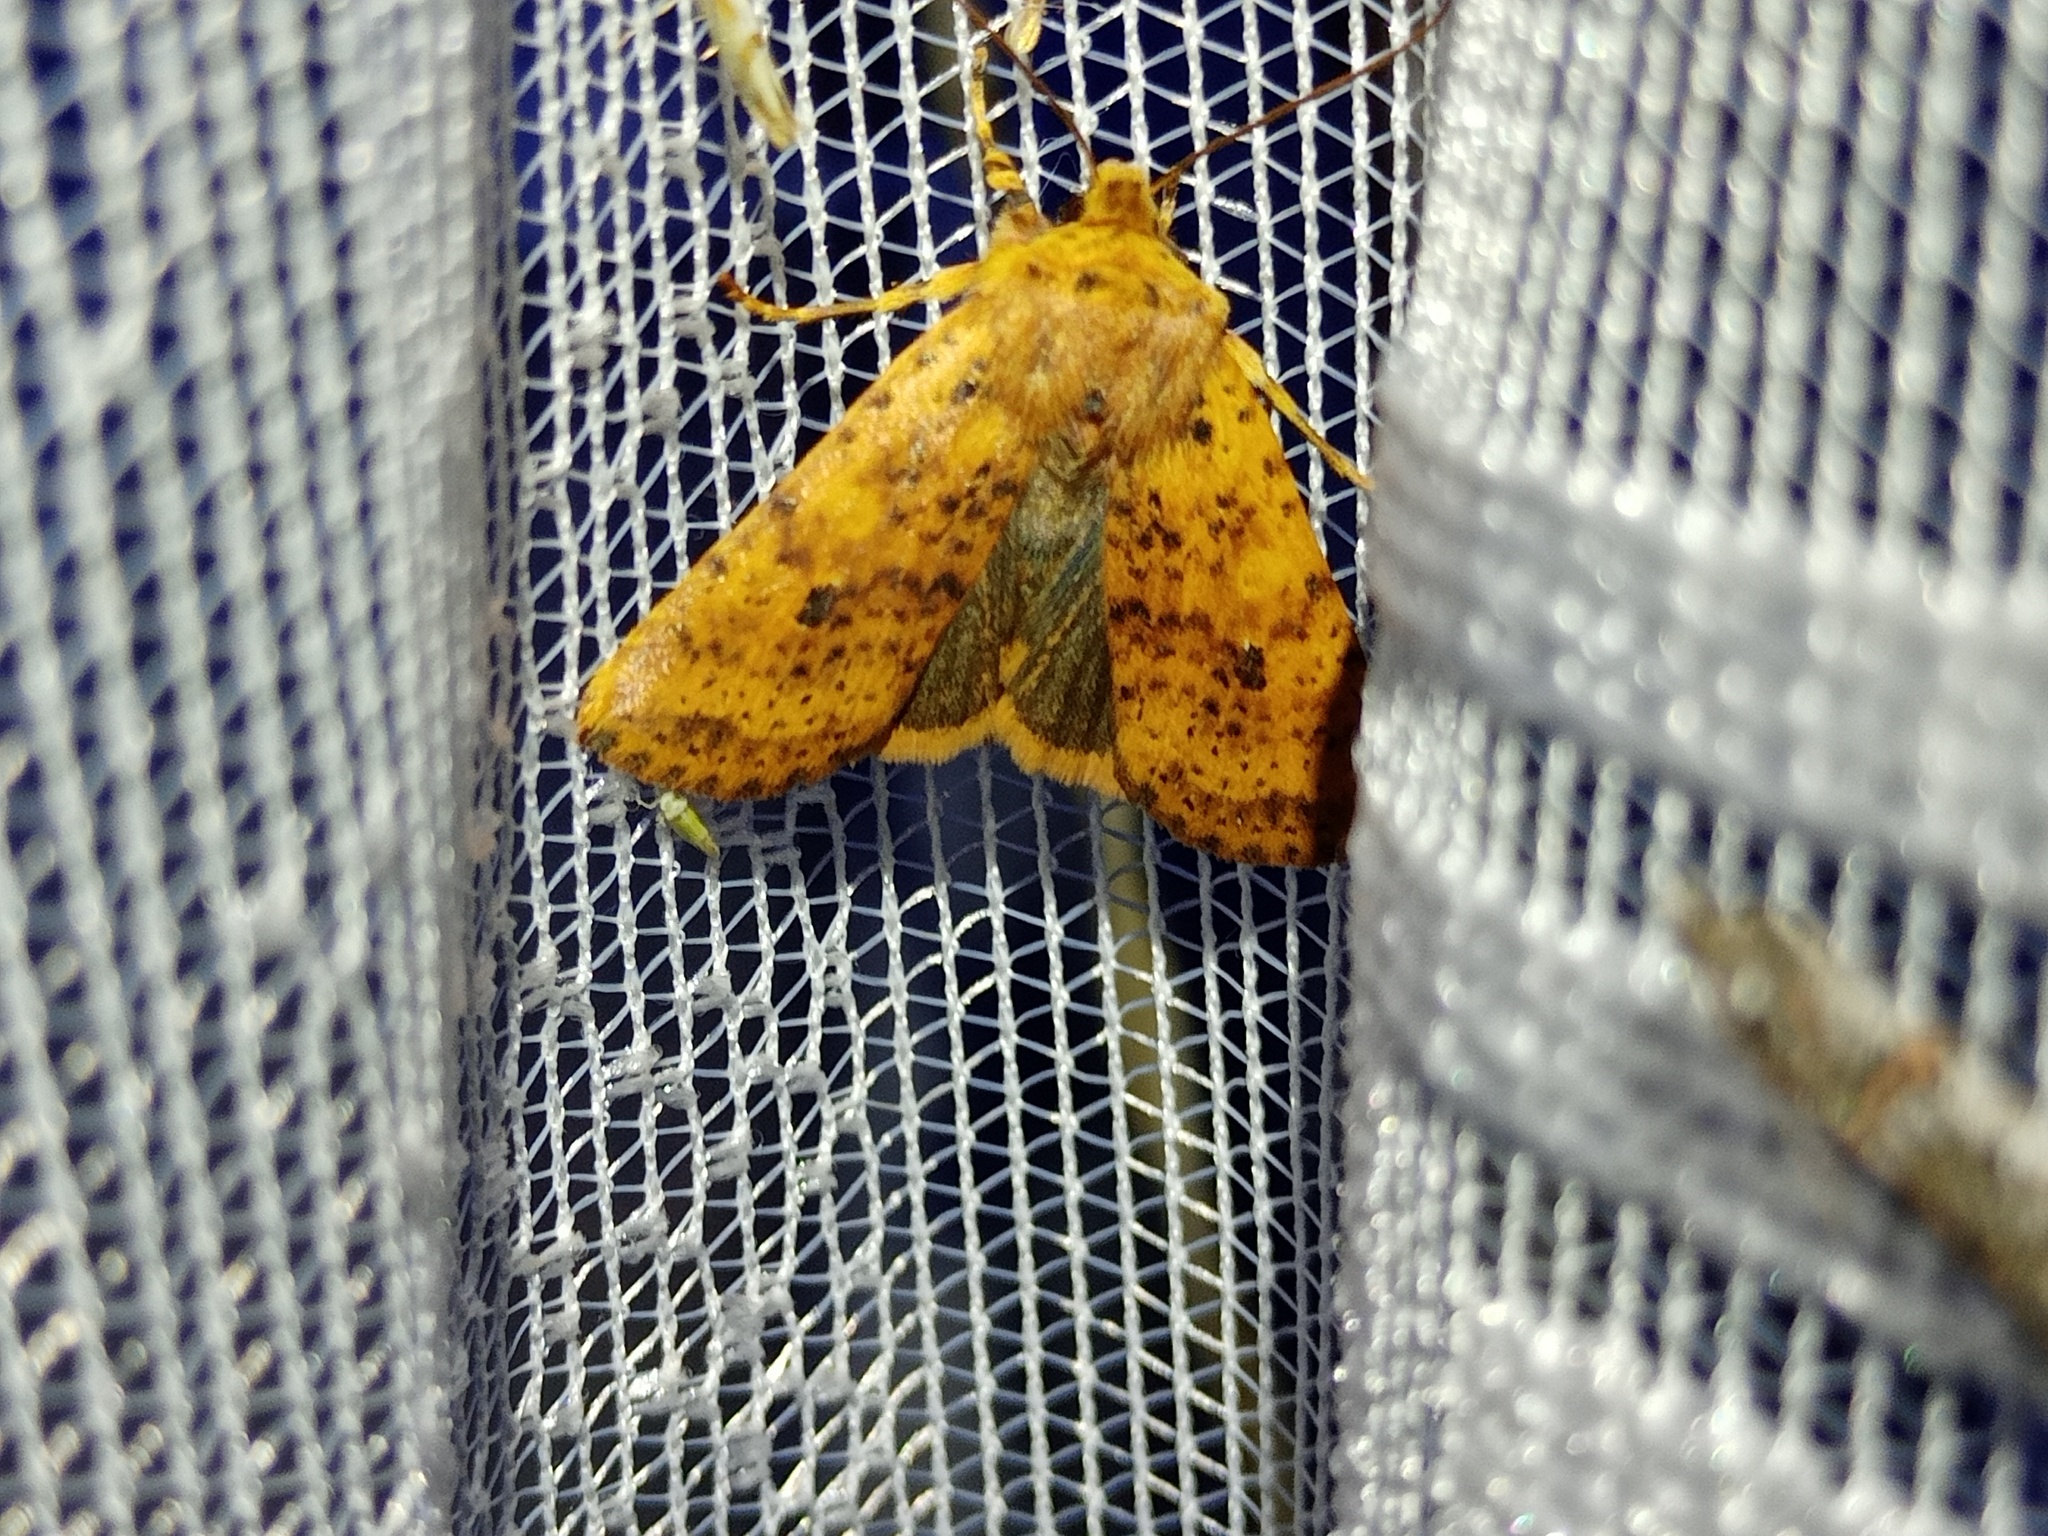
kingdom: Animalia
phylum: Arthropoda
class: Insecta
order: Lepidoptera
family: Noctuidae
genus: Conistra
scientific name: Conistra rubiginea
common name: Dotted chestnut
